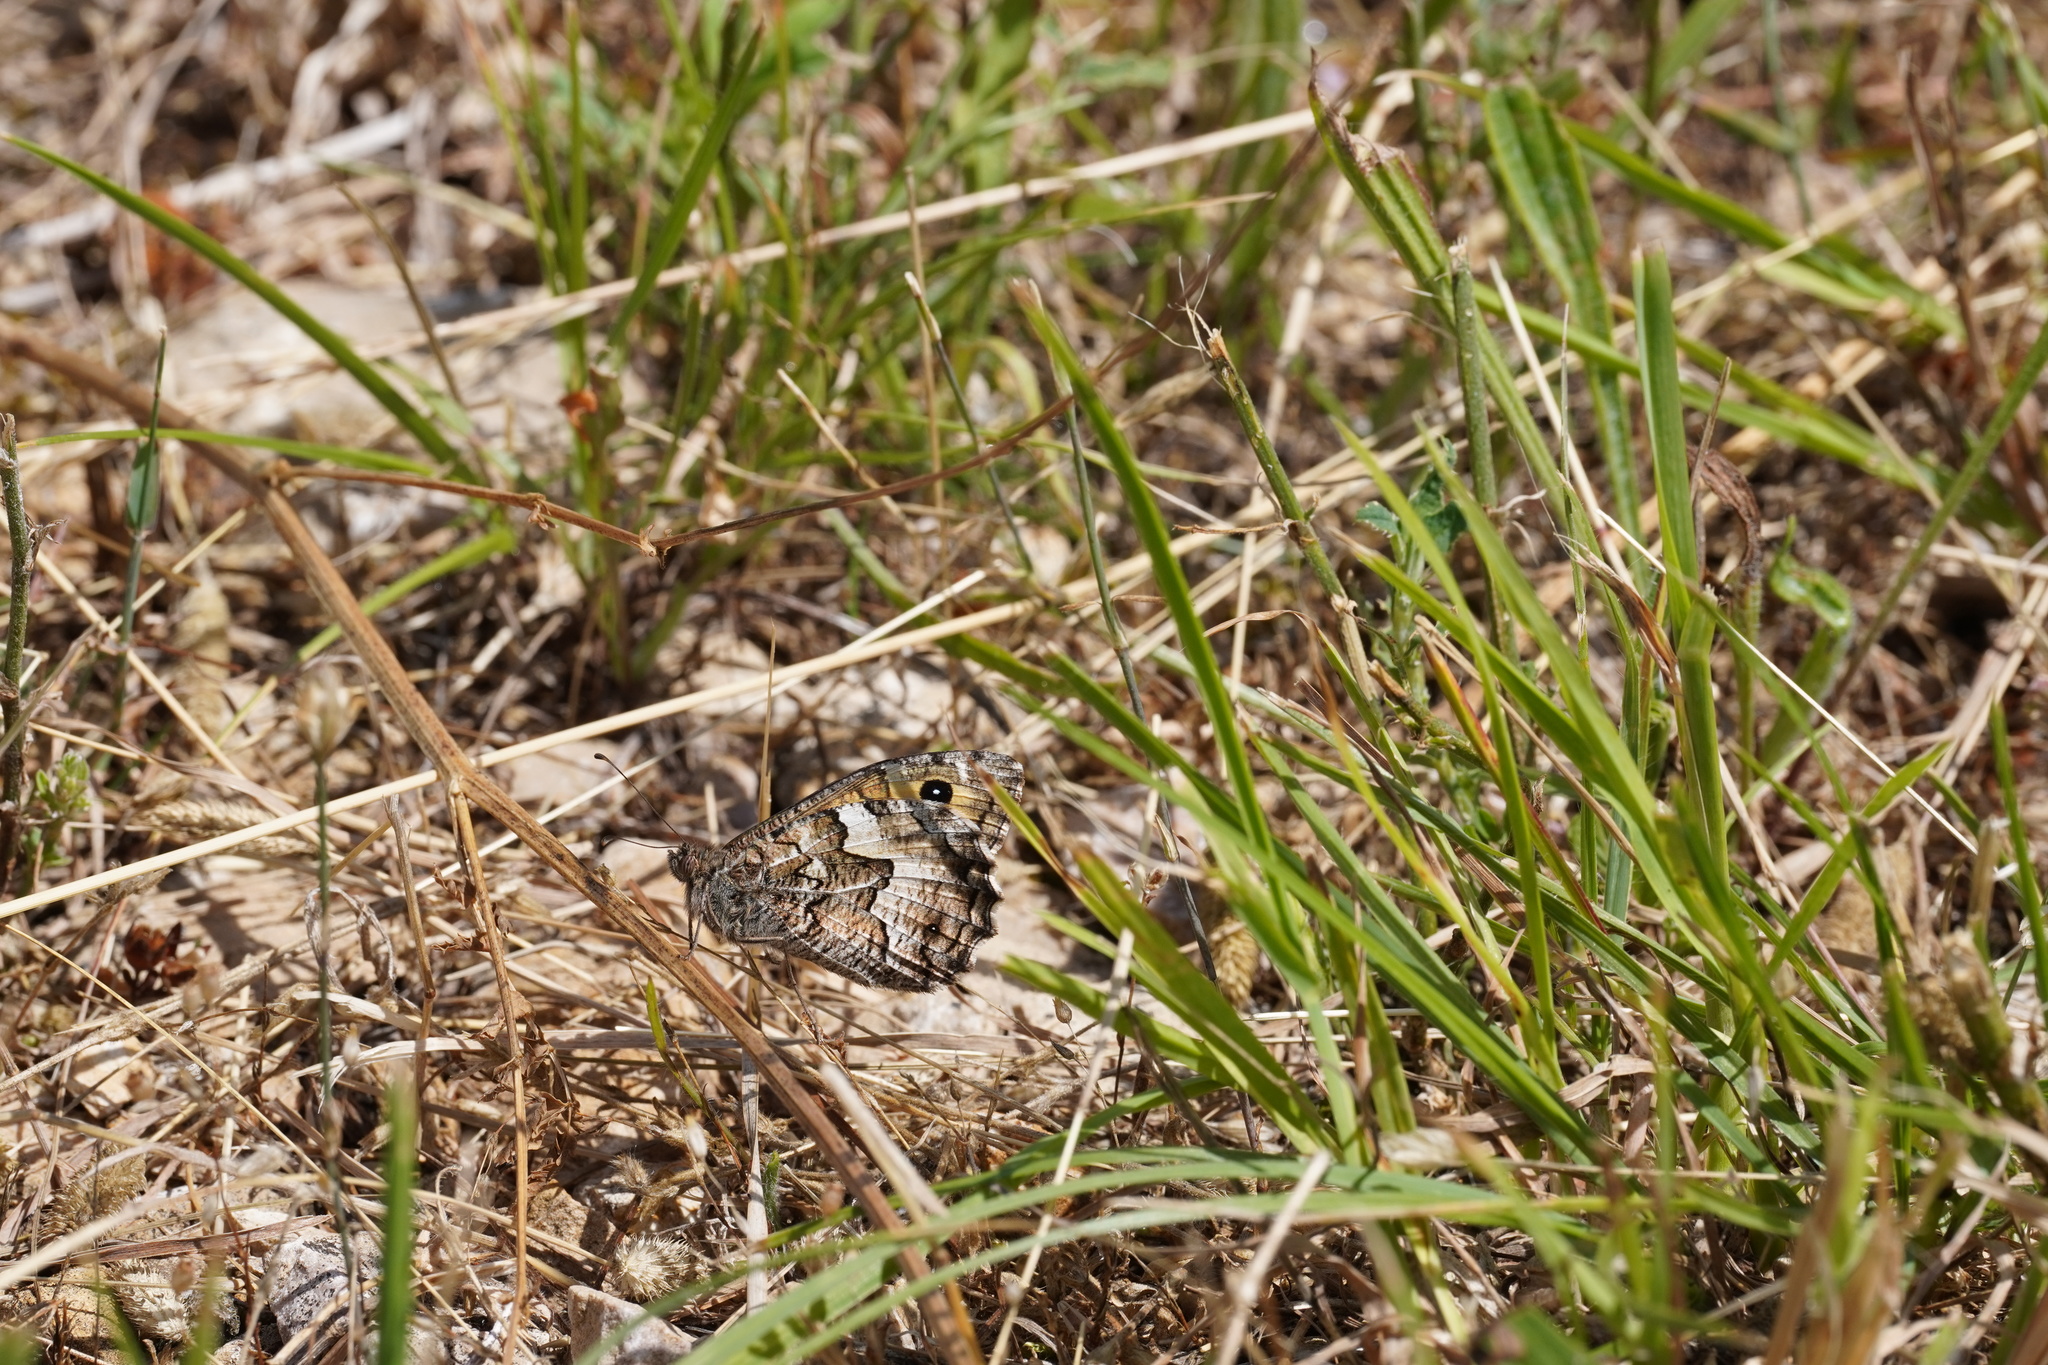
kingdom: Animalia
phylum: Arthropoda
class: Insecta
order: Lepidoptera
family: Nymphalidae
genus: Hipparchia
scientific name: Hipparchia semele
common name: Grayling
